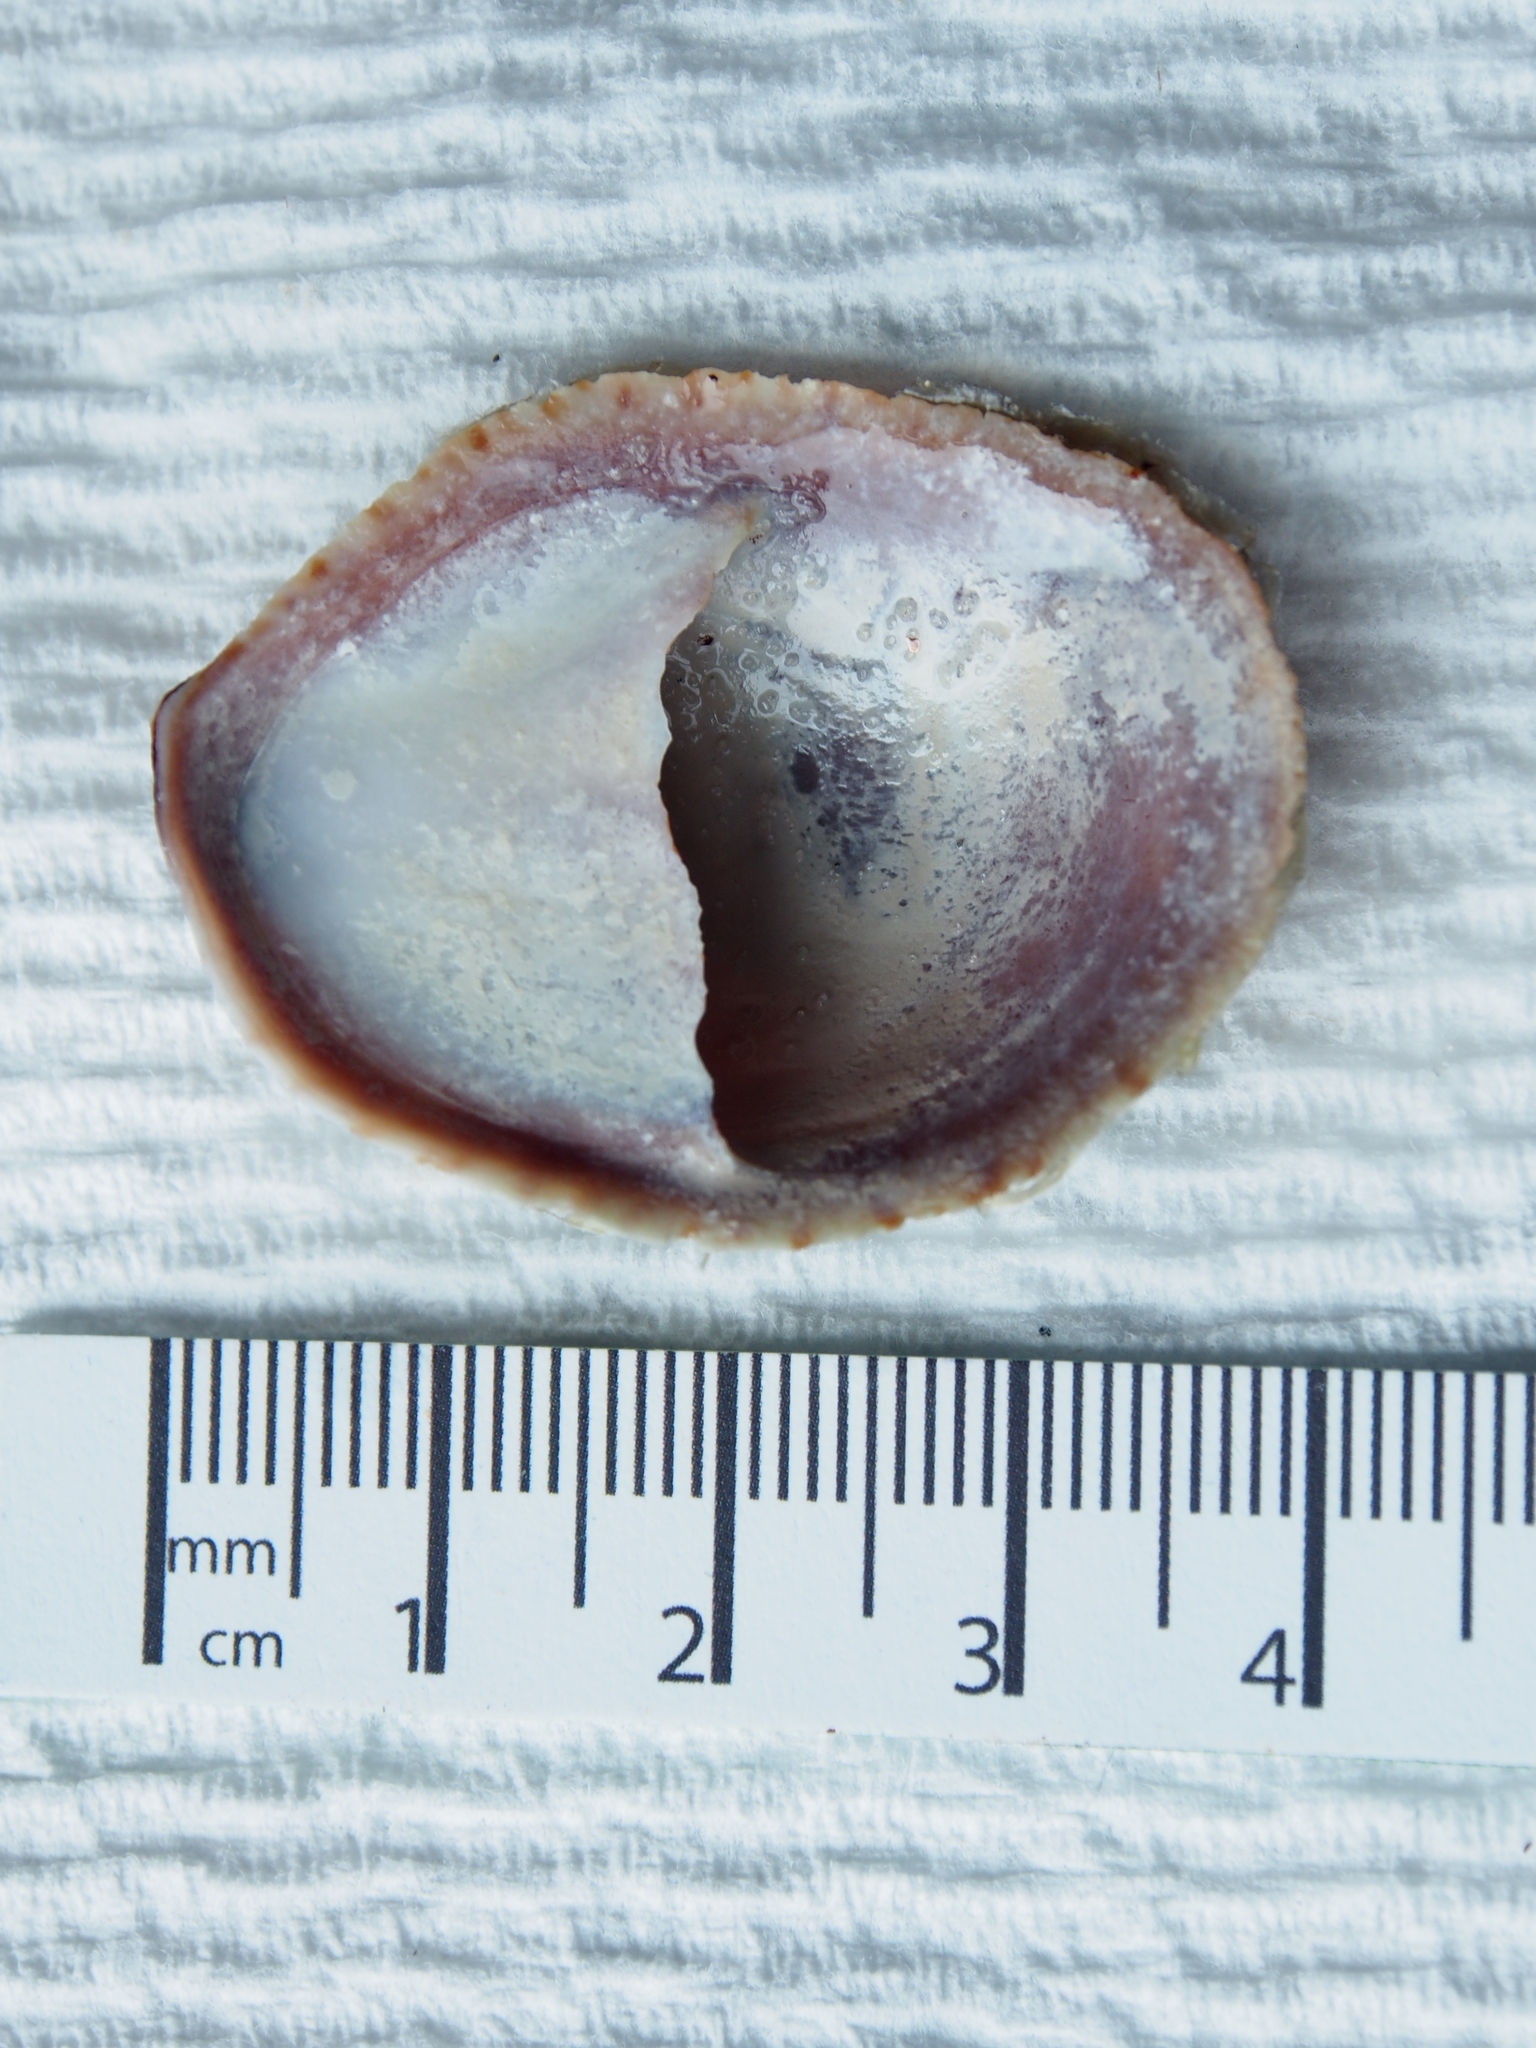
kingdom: Animalia
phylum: Mollusca
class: Gastropoda
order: Littorinimorpha
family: Calyptraeidae
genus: Crepidula
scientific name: Crepidula fornicata
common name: Slipper limpet
